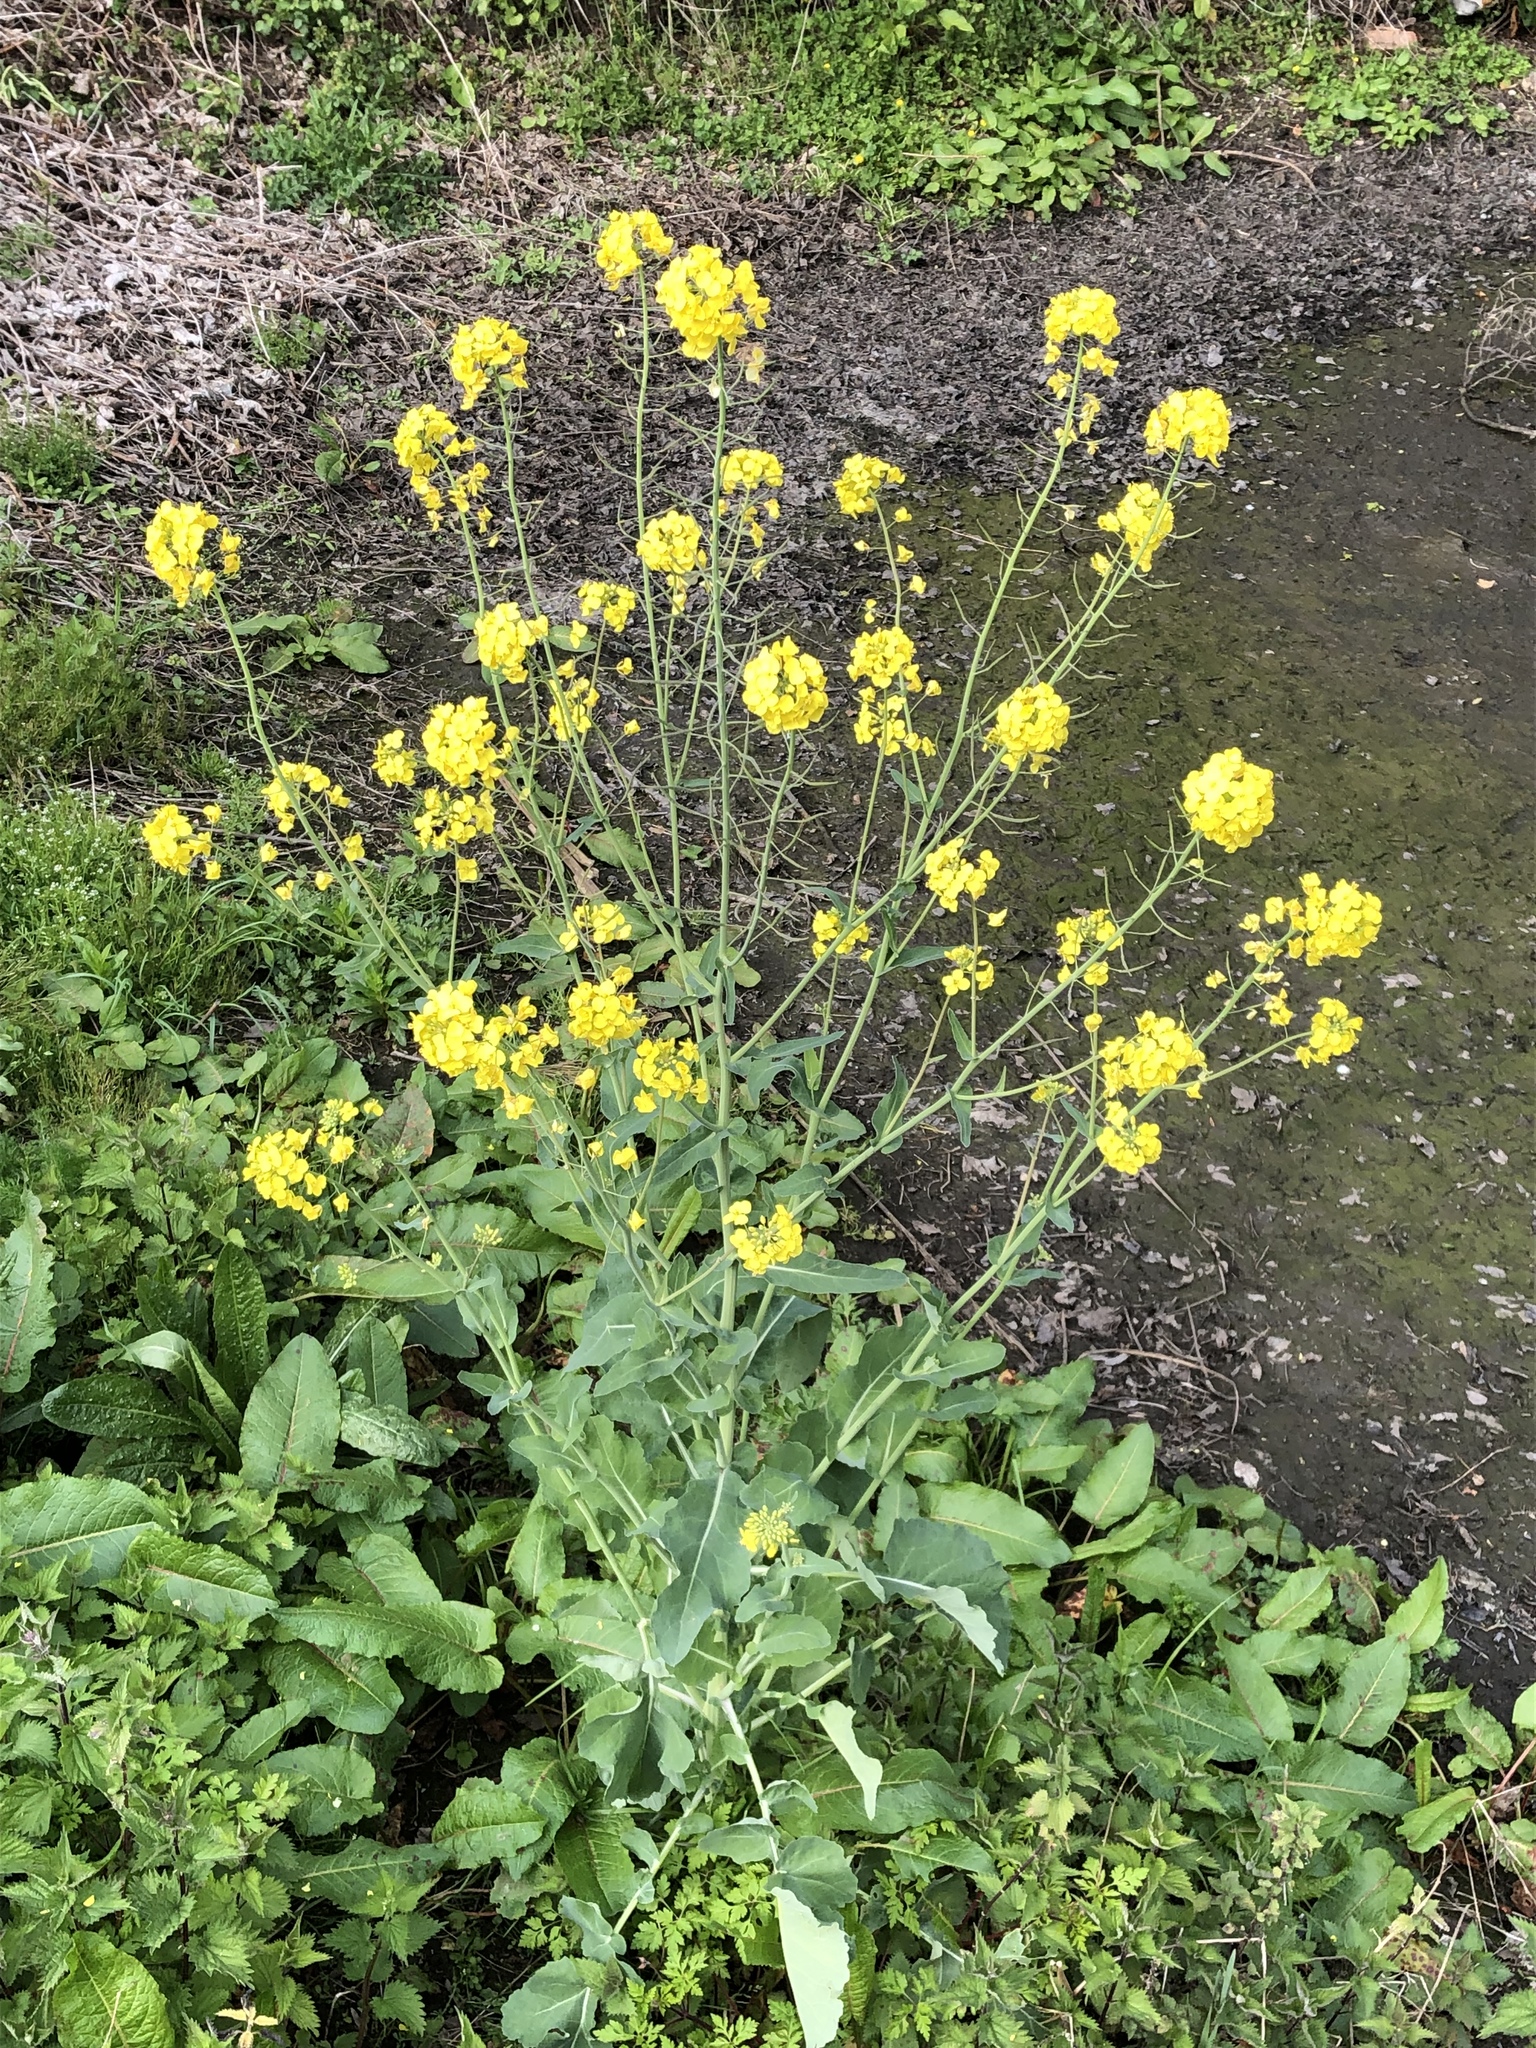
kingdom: Plantae
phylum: Tracheophyta
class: Magnoliopsida
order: Brassicales
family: Brassicaceae
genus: Brassica
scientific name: Brassica rapa
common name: Field mustard
